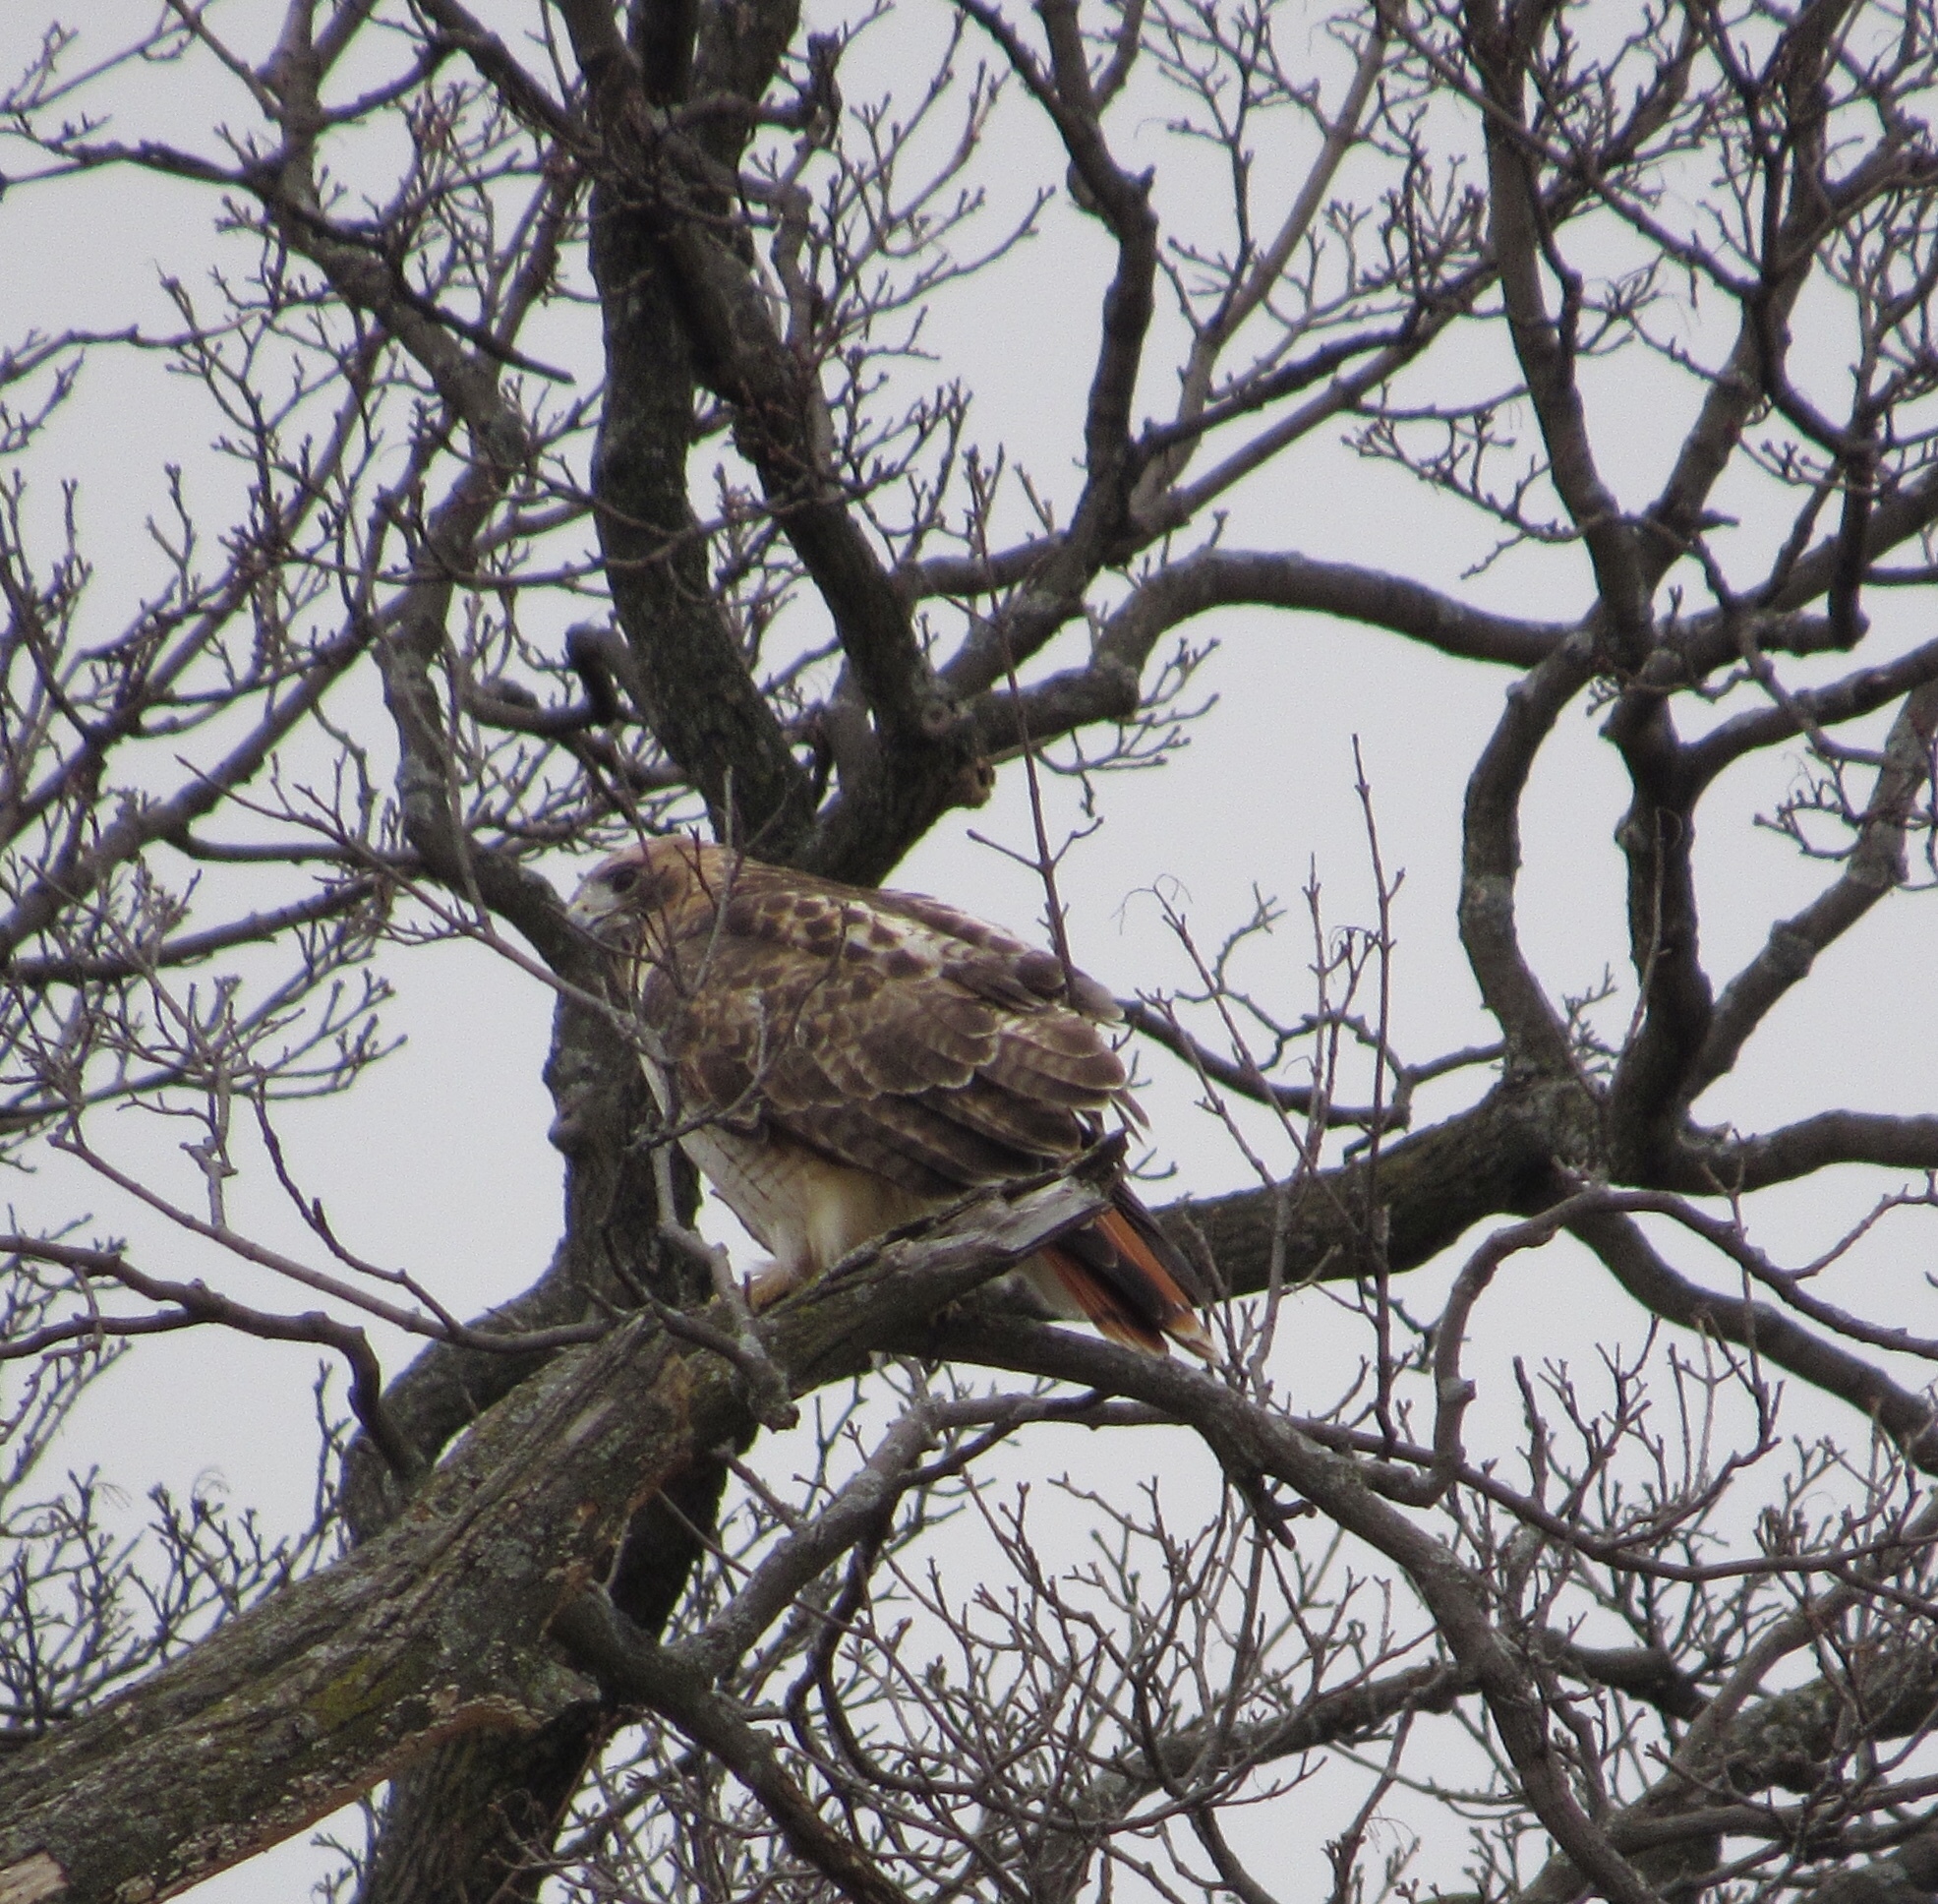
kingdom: Animalia
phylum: Chordata
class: Aves
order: Accipitriformes
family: Accipitridae
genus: Buteo
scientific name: Buteo jamaicensis
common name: Red-tailed hawk
